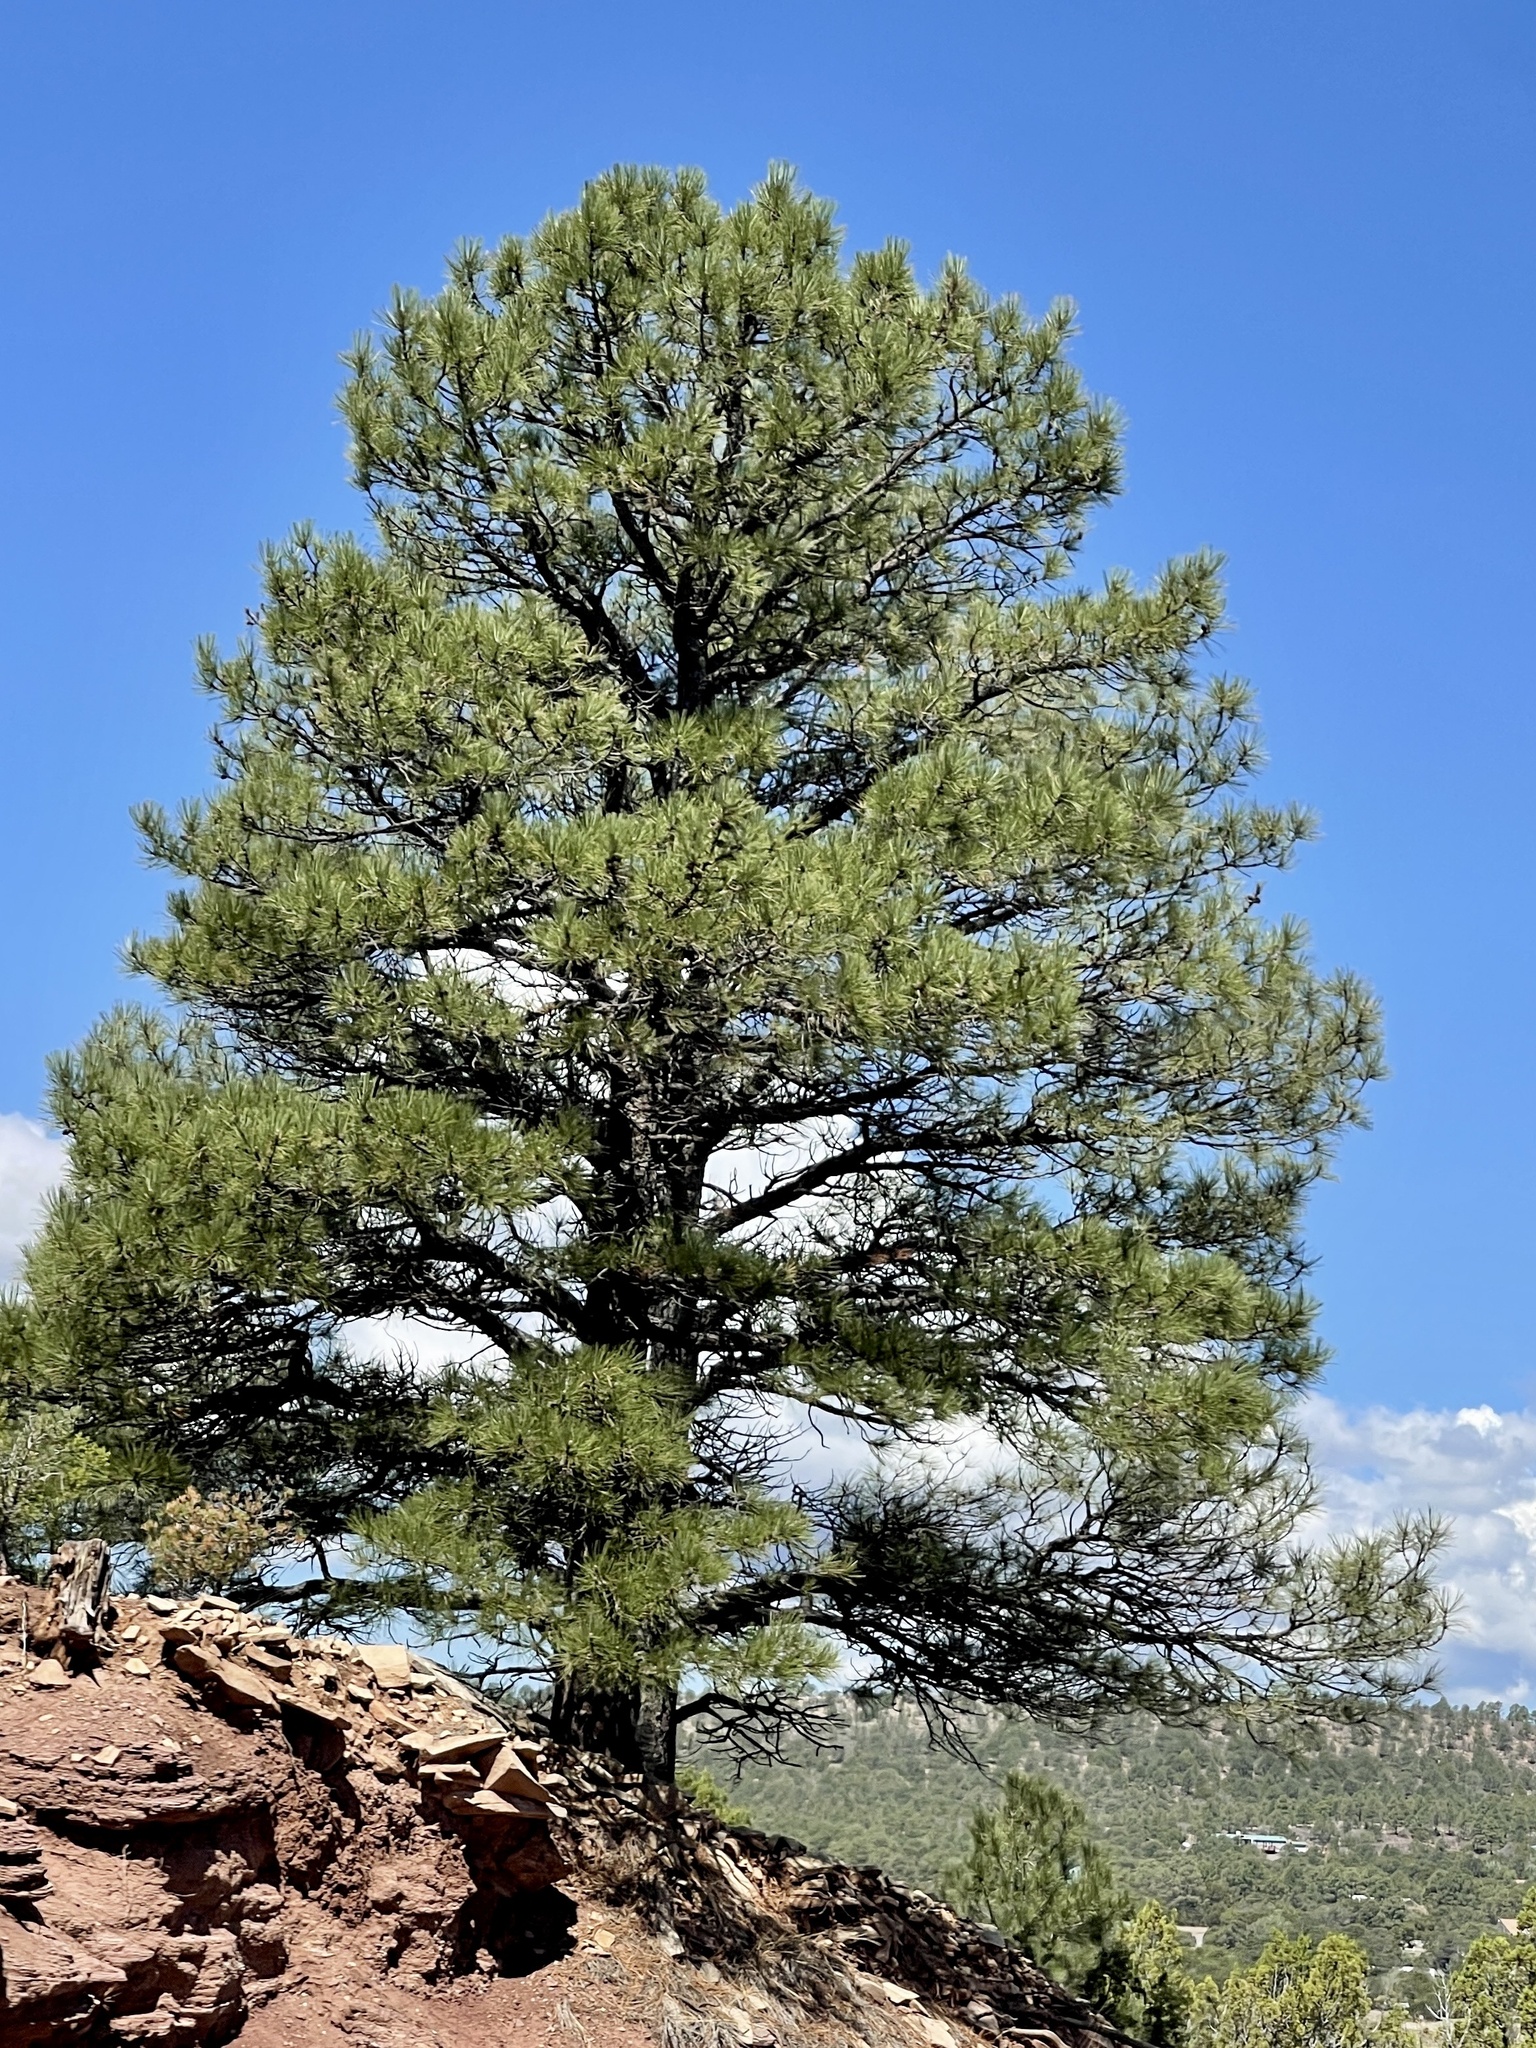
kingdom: Plantae
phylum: Tracheophyta
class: Pinopsida
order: Pinales
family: Pinaceae
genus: Pinus
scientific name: Pinus ponderosa
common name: Western yellow-pine
